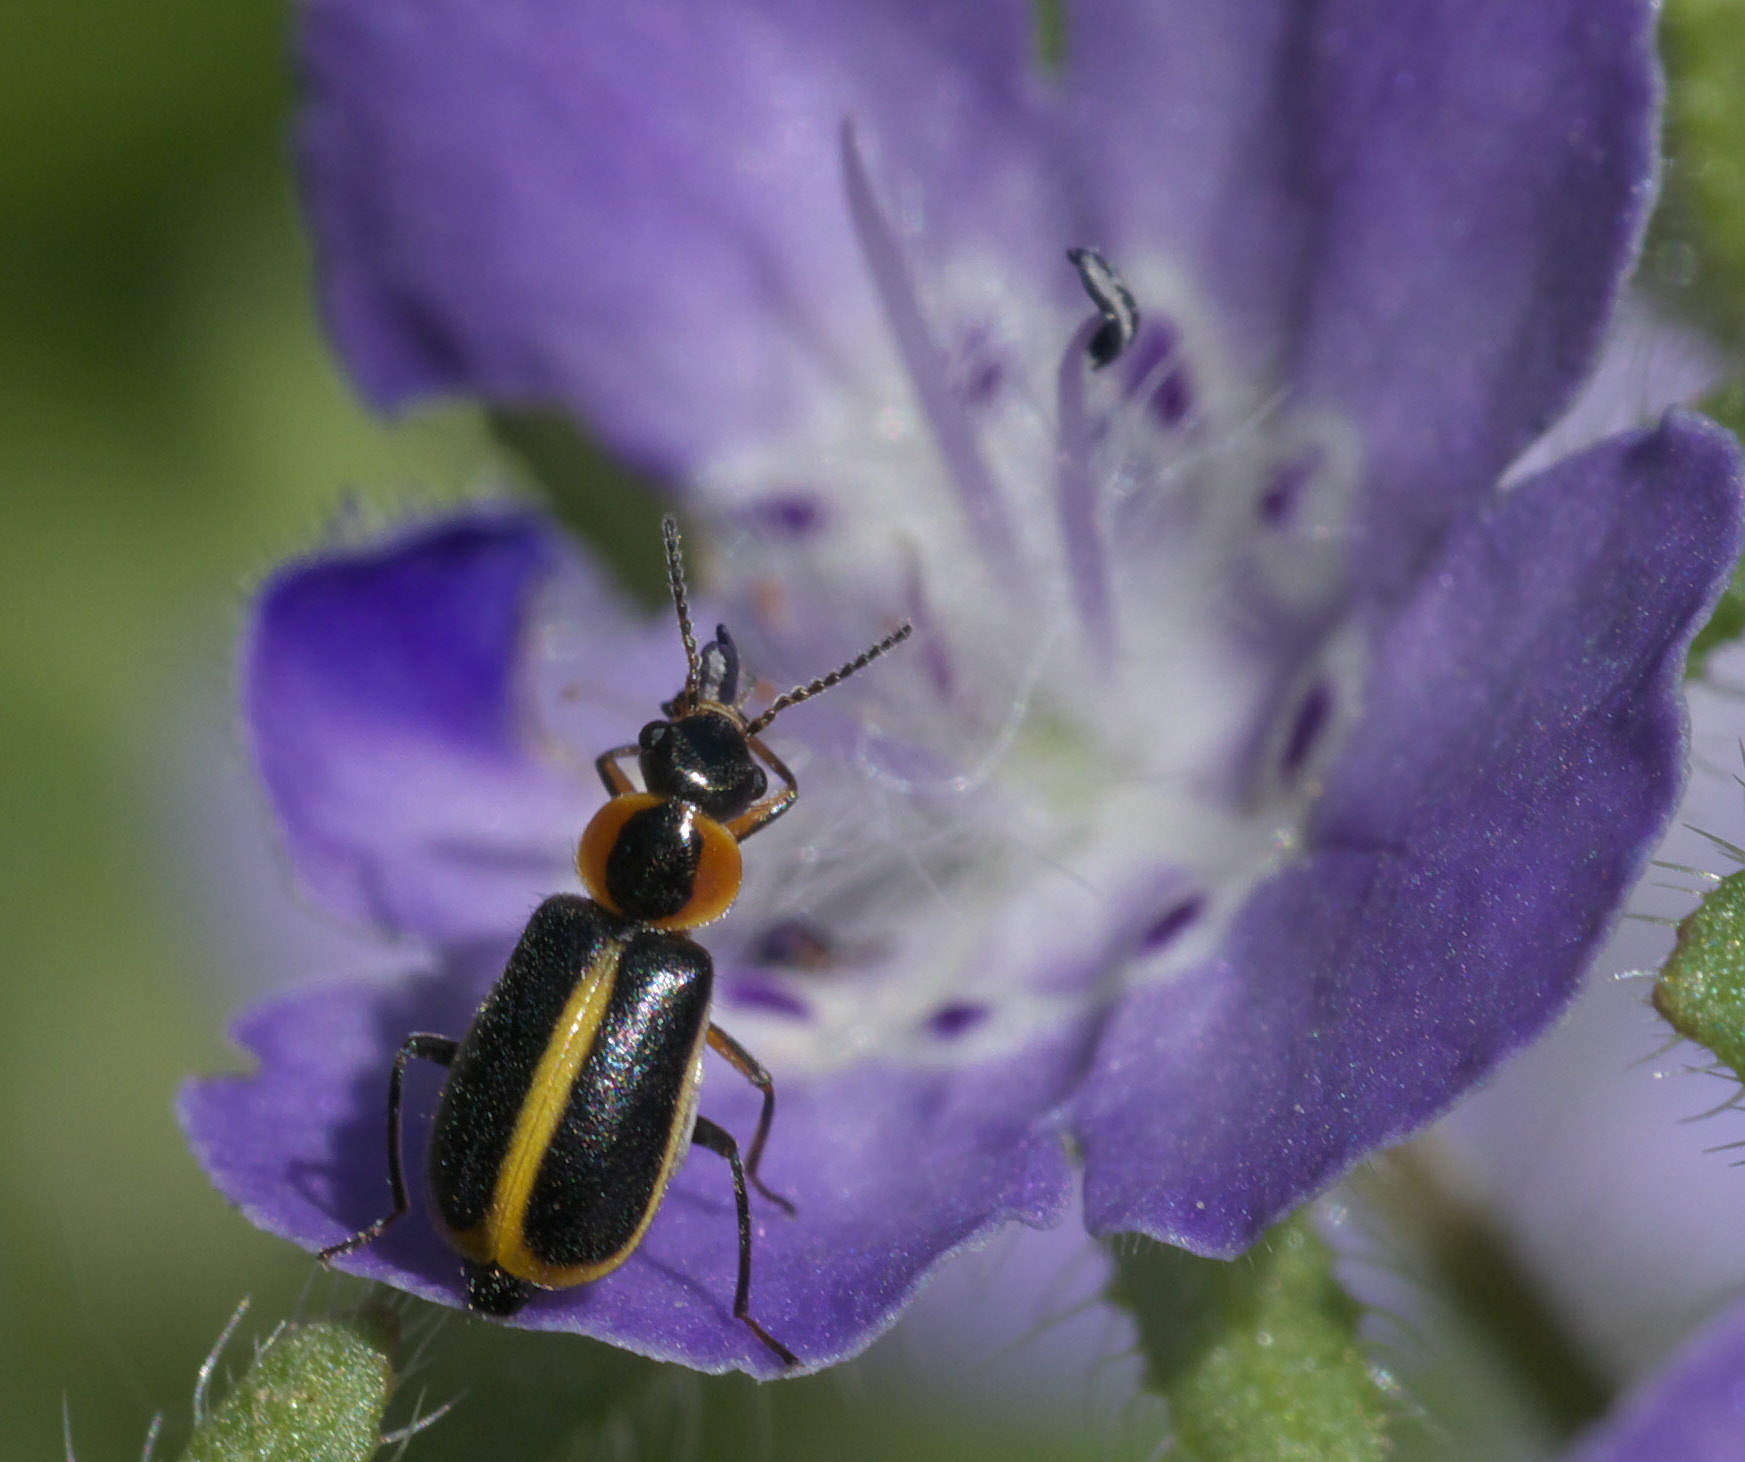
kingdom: Animalia
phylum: Arthropoda
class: Insecta
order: Coleoptera
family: Malachiidae
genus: Attalus
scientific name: Attalus
